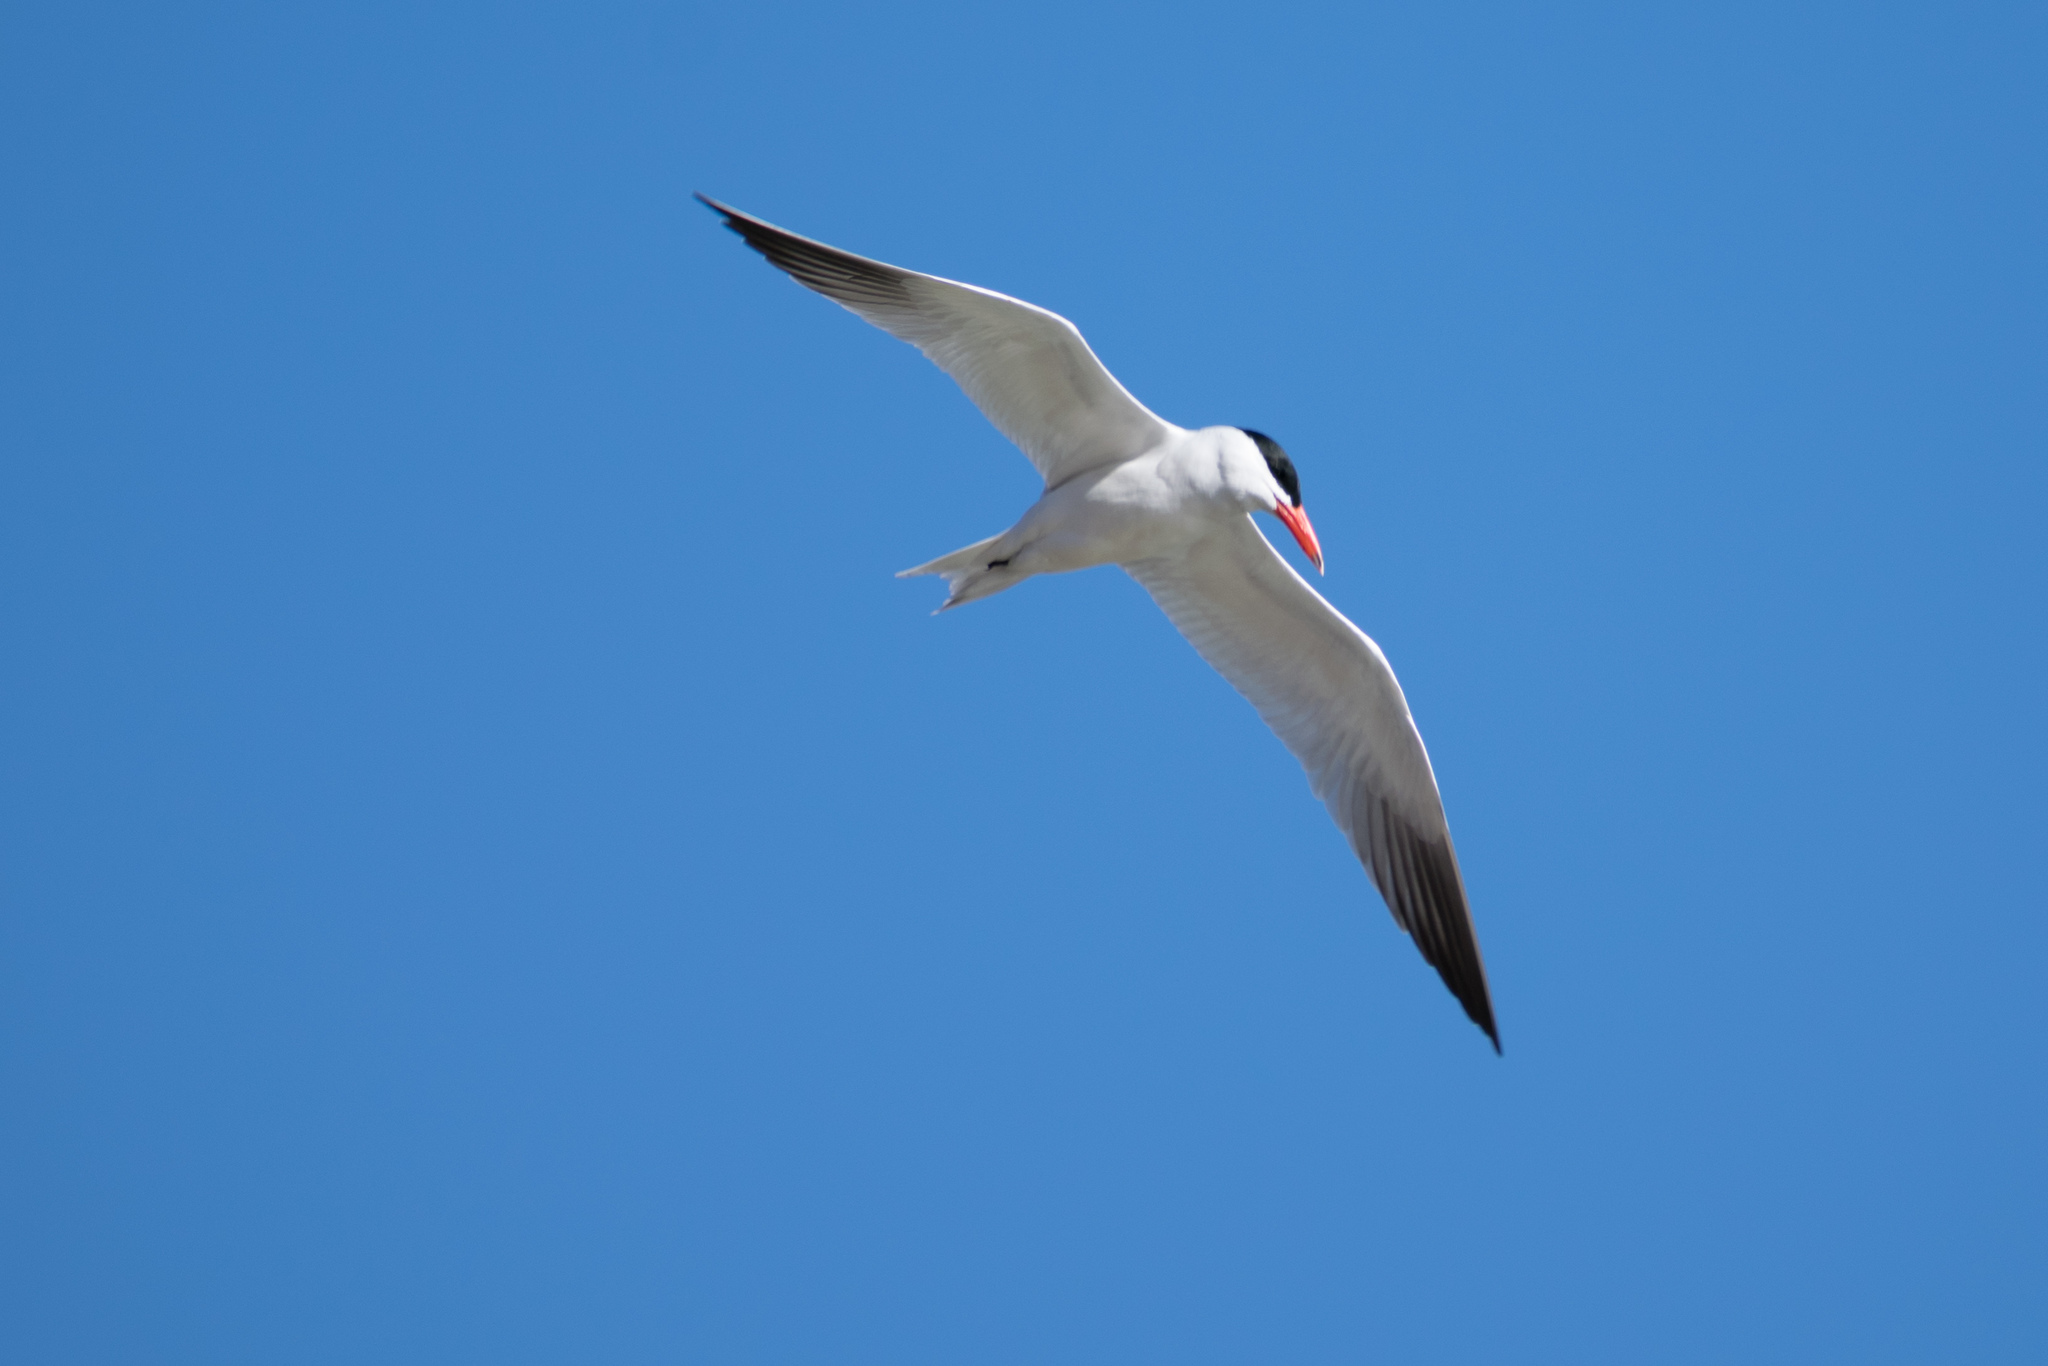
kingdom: Animalia
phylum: Chordata
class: Aves
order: Charadriiformes
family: Laridae
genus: Hydroprogne
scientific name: Hydroprogne caspia
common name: Caspian tern
